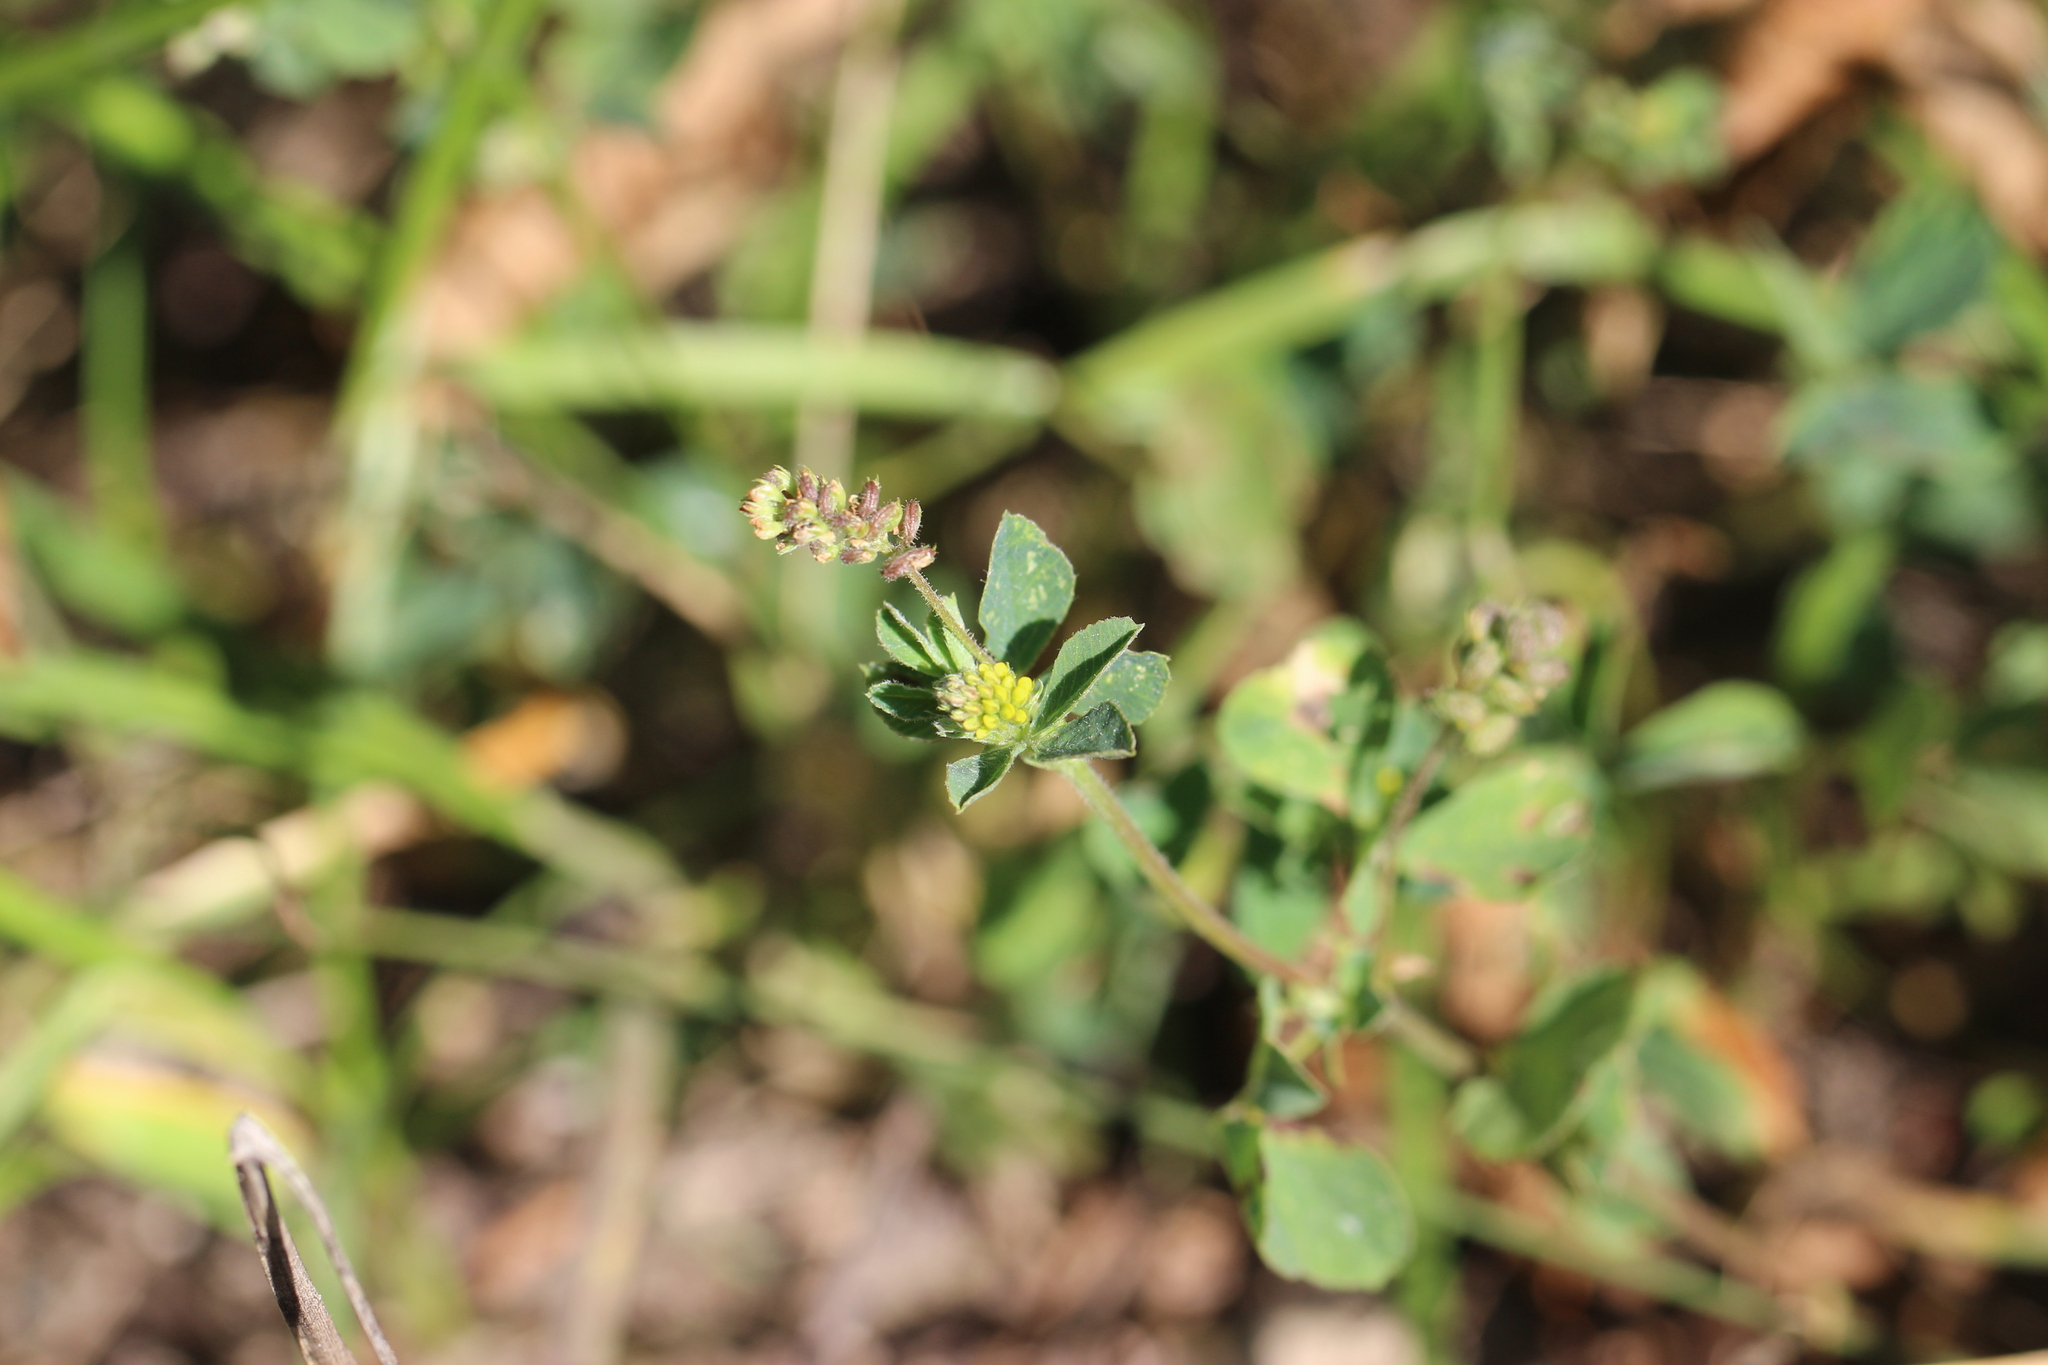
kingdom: Plantae
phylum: Tracheophyta
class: Magnoliopsida
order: Fabales
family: Fabaceae
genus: Medicago
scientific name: Medicago lupulina
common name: Black medick
